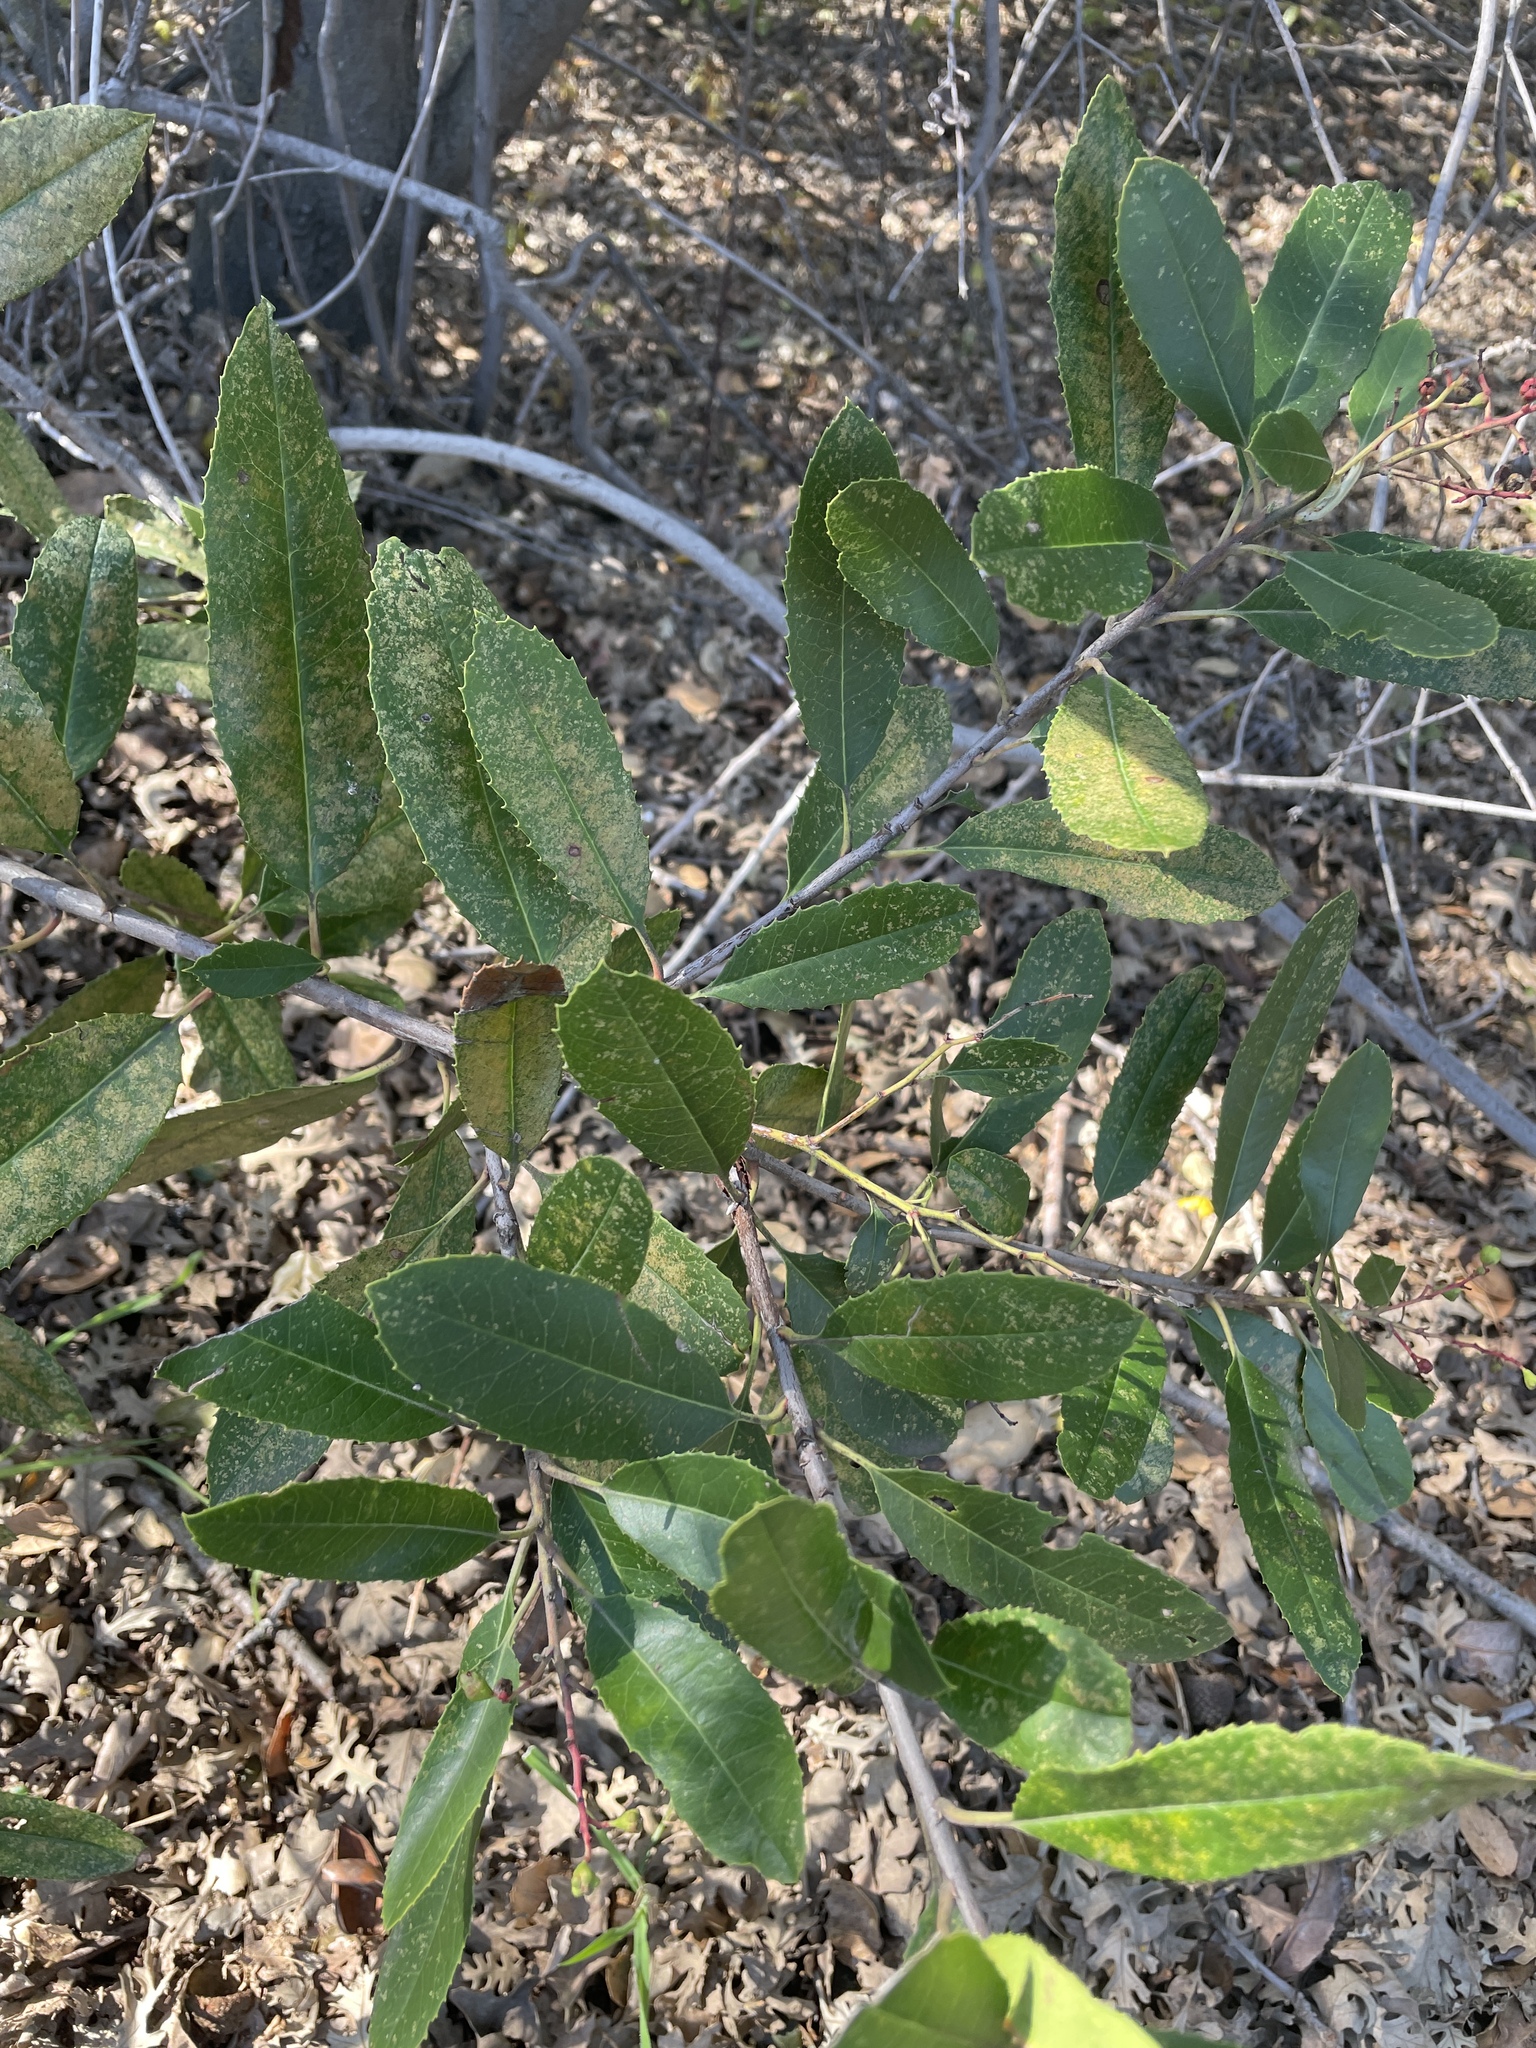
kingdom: Plantae
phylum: Tracheophyta
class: Magnoliopsida
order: Rosales
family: Rosaceae
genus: Heteromeles
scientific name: Heteromeles arbutifolia
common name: California-holly
